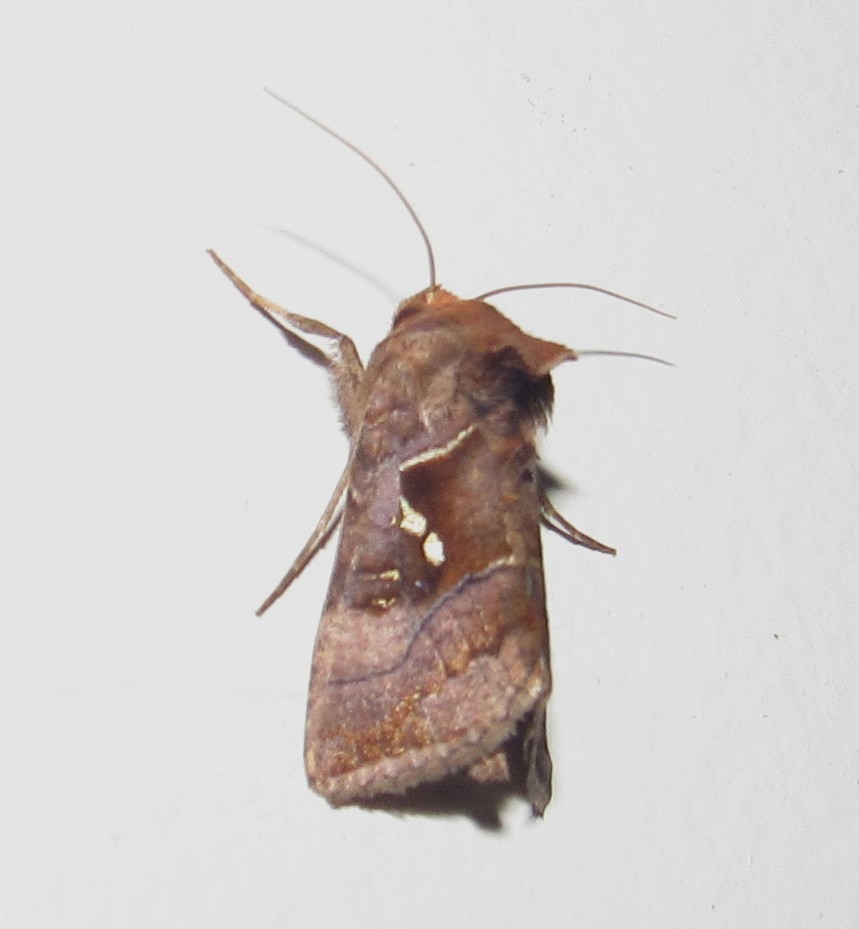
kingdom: Animalia
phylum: Arthropoda
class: Insecta
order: Lepidoptera
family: Noctuidae
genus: Enigmogramma
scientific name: Enigmogramma admonens
